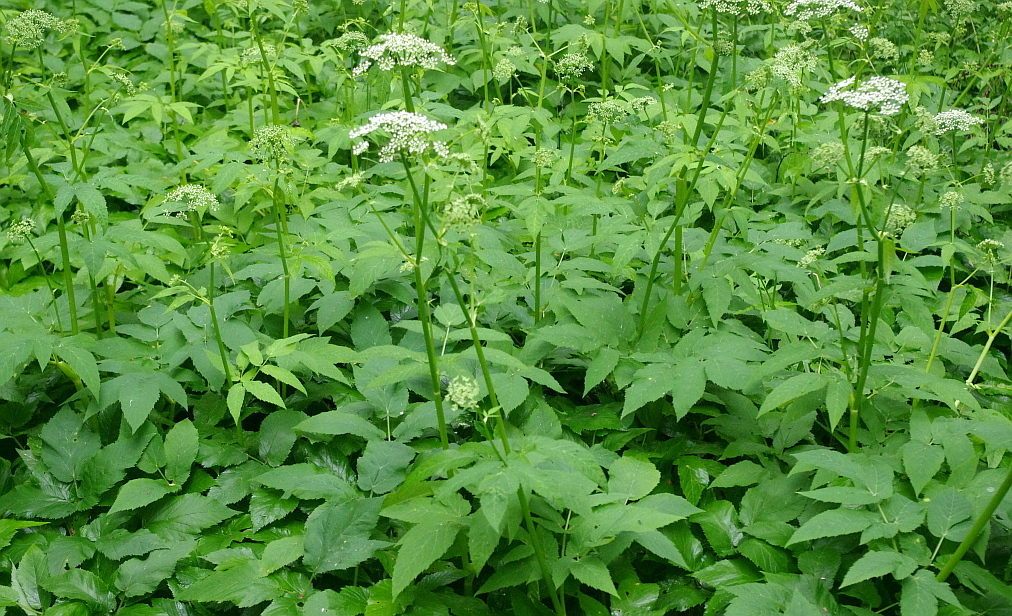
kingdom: Plantae
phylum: Tracheophyta
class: Magnoliopsida
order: Apiales
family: Apiaceae
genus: Aegopodium
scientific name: Aegopodium podagraria
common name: Ground-elder
